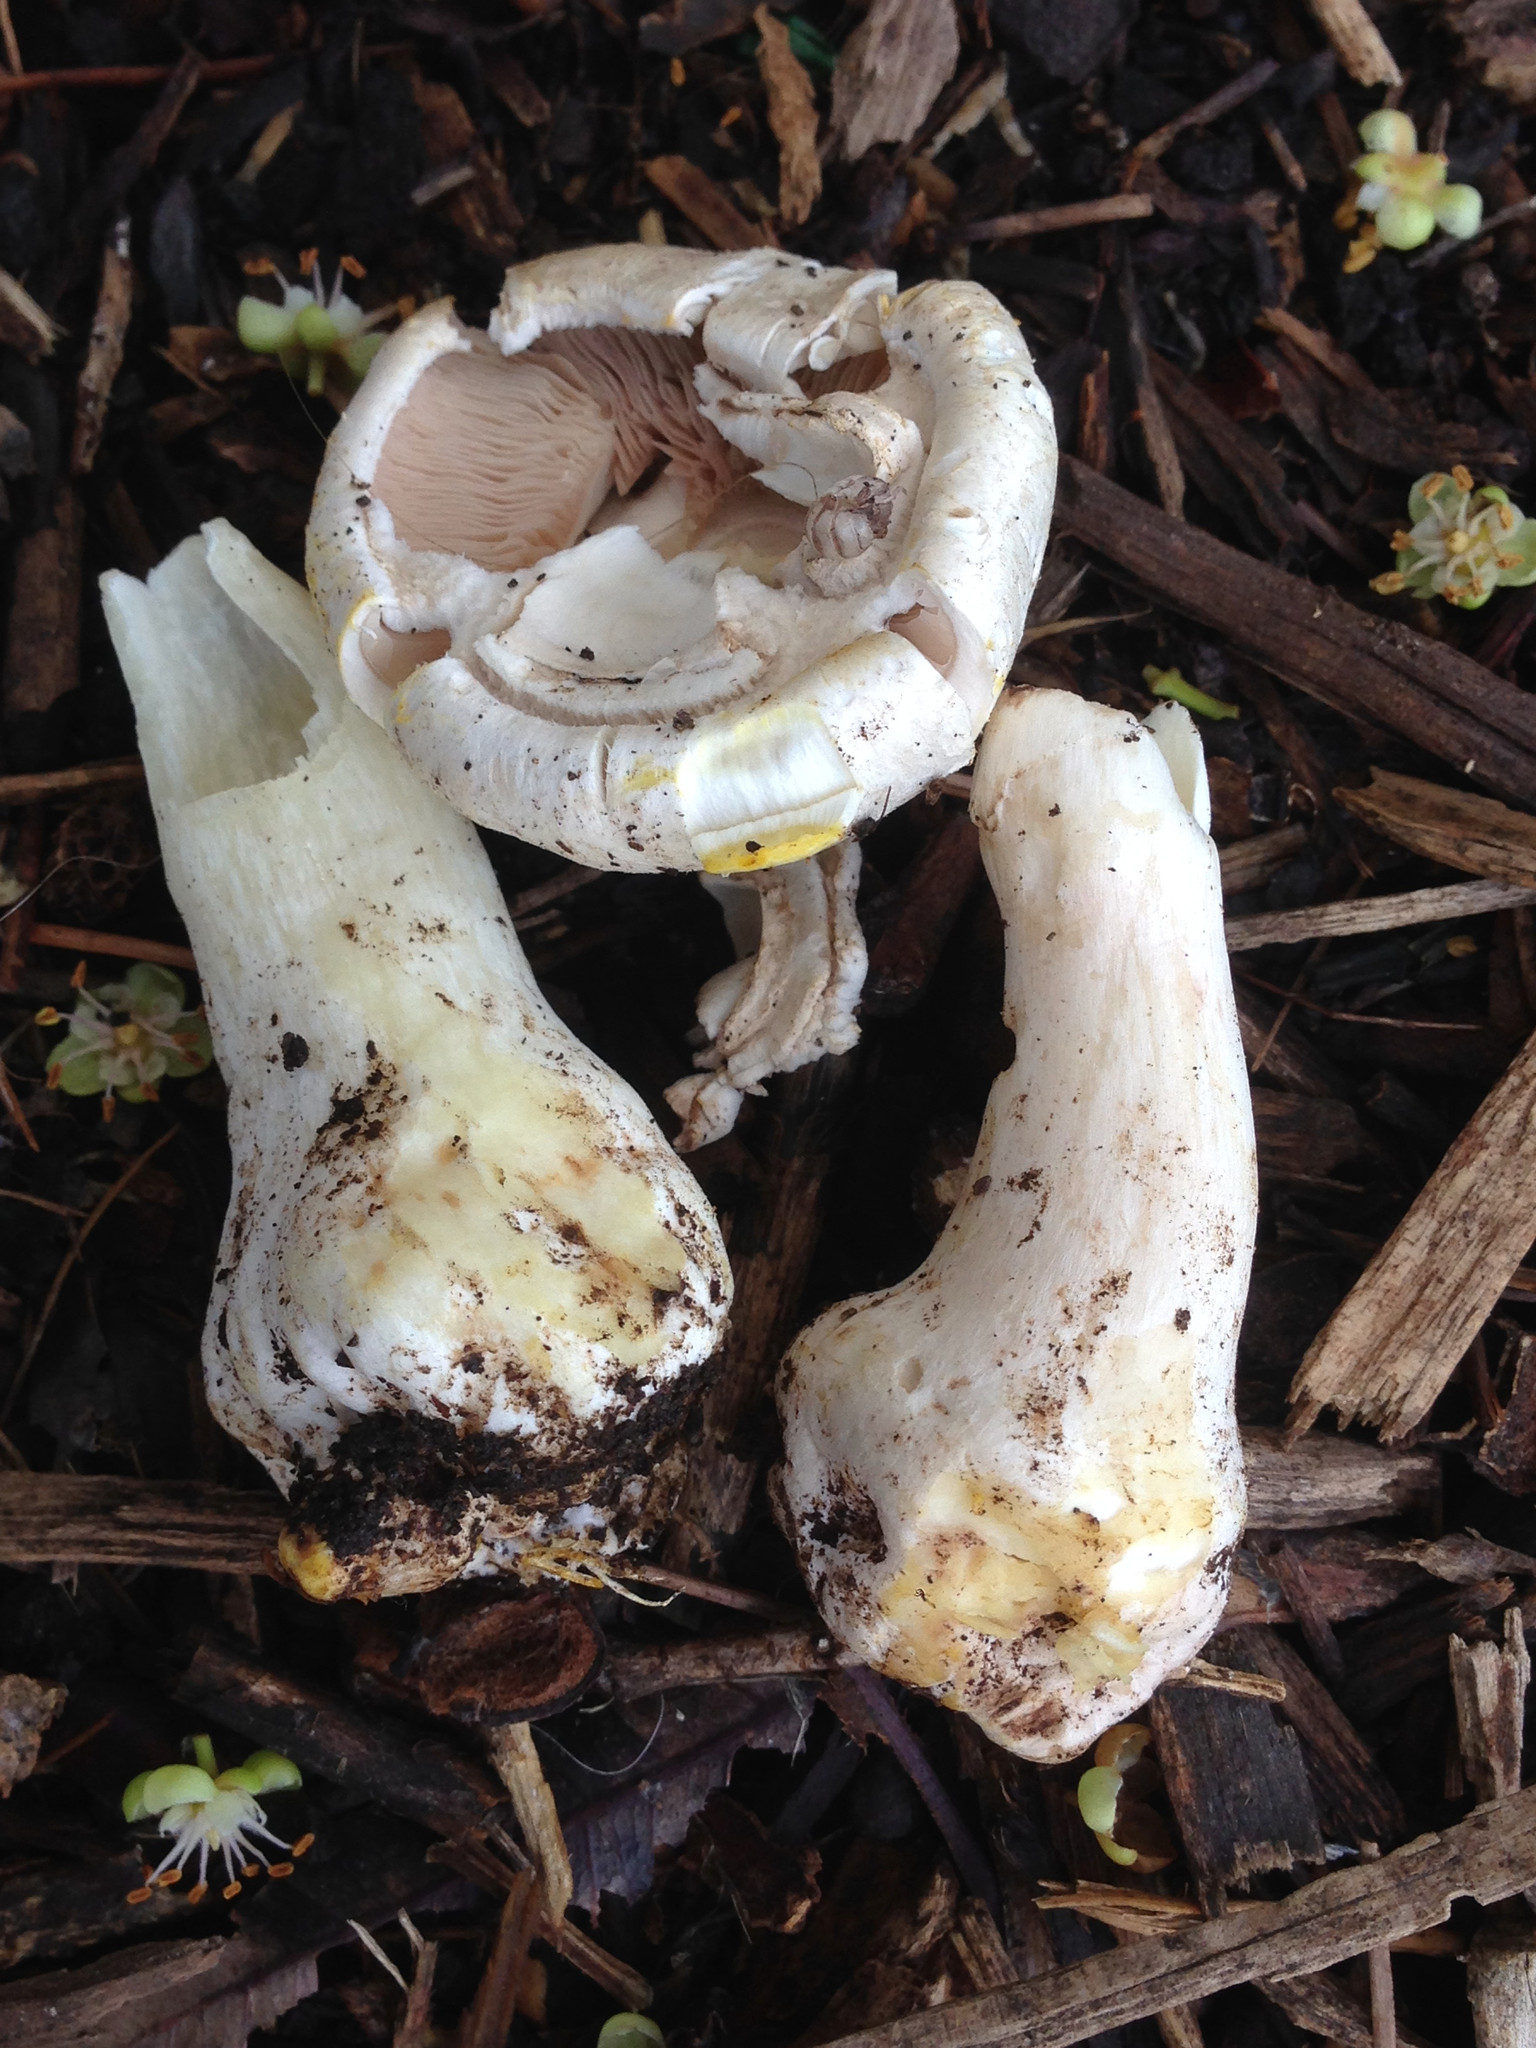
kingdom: Fungi
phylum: Basidiomycota
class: Agaricomycetes
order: Agaricales
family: Agaricaceae
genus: Agaricus
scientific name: Agaricus xanthodermus
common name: Yellow stainer
